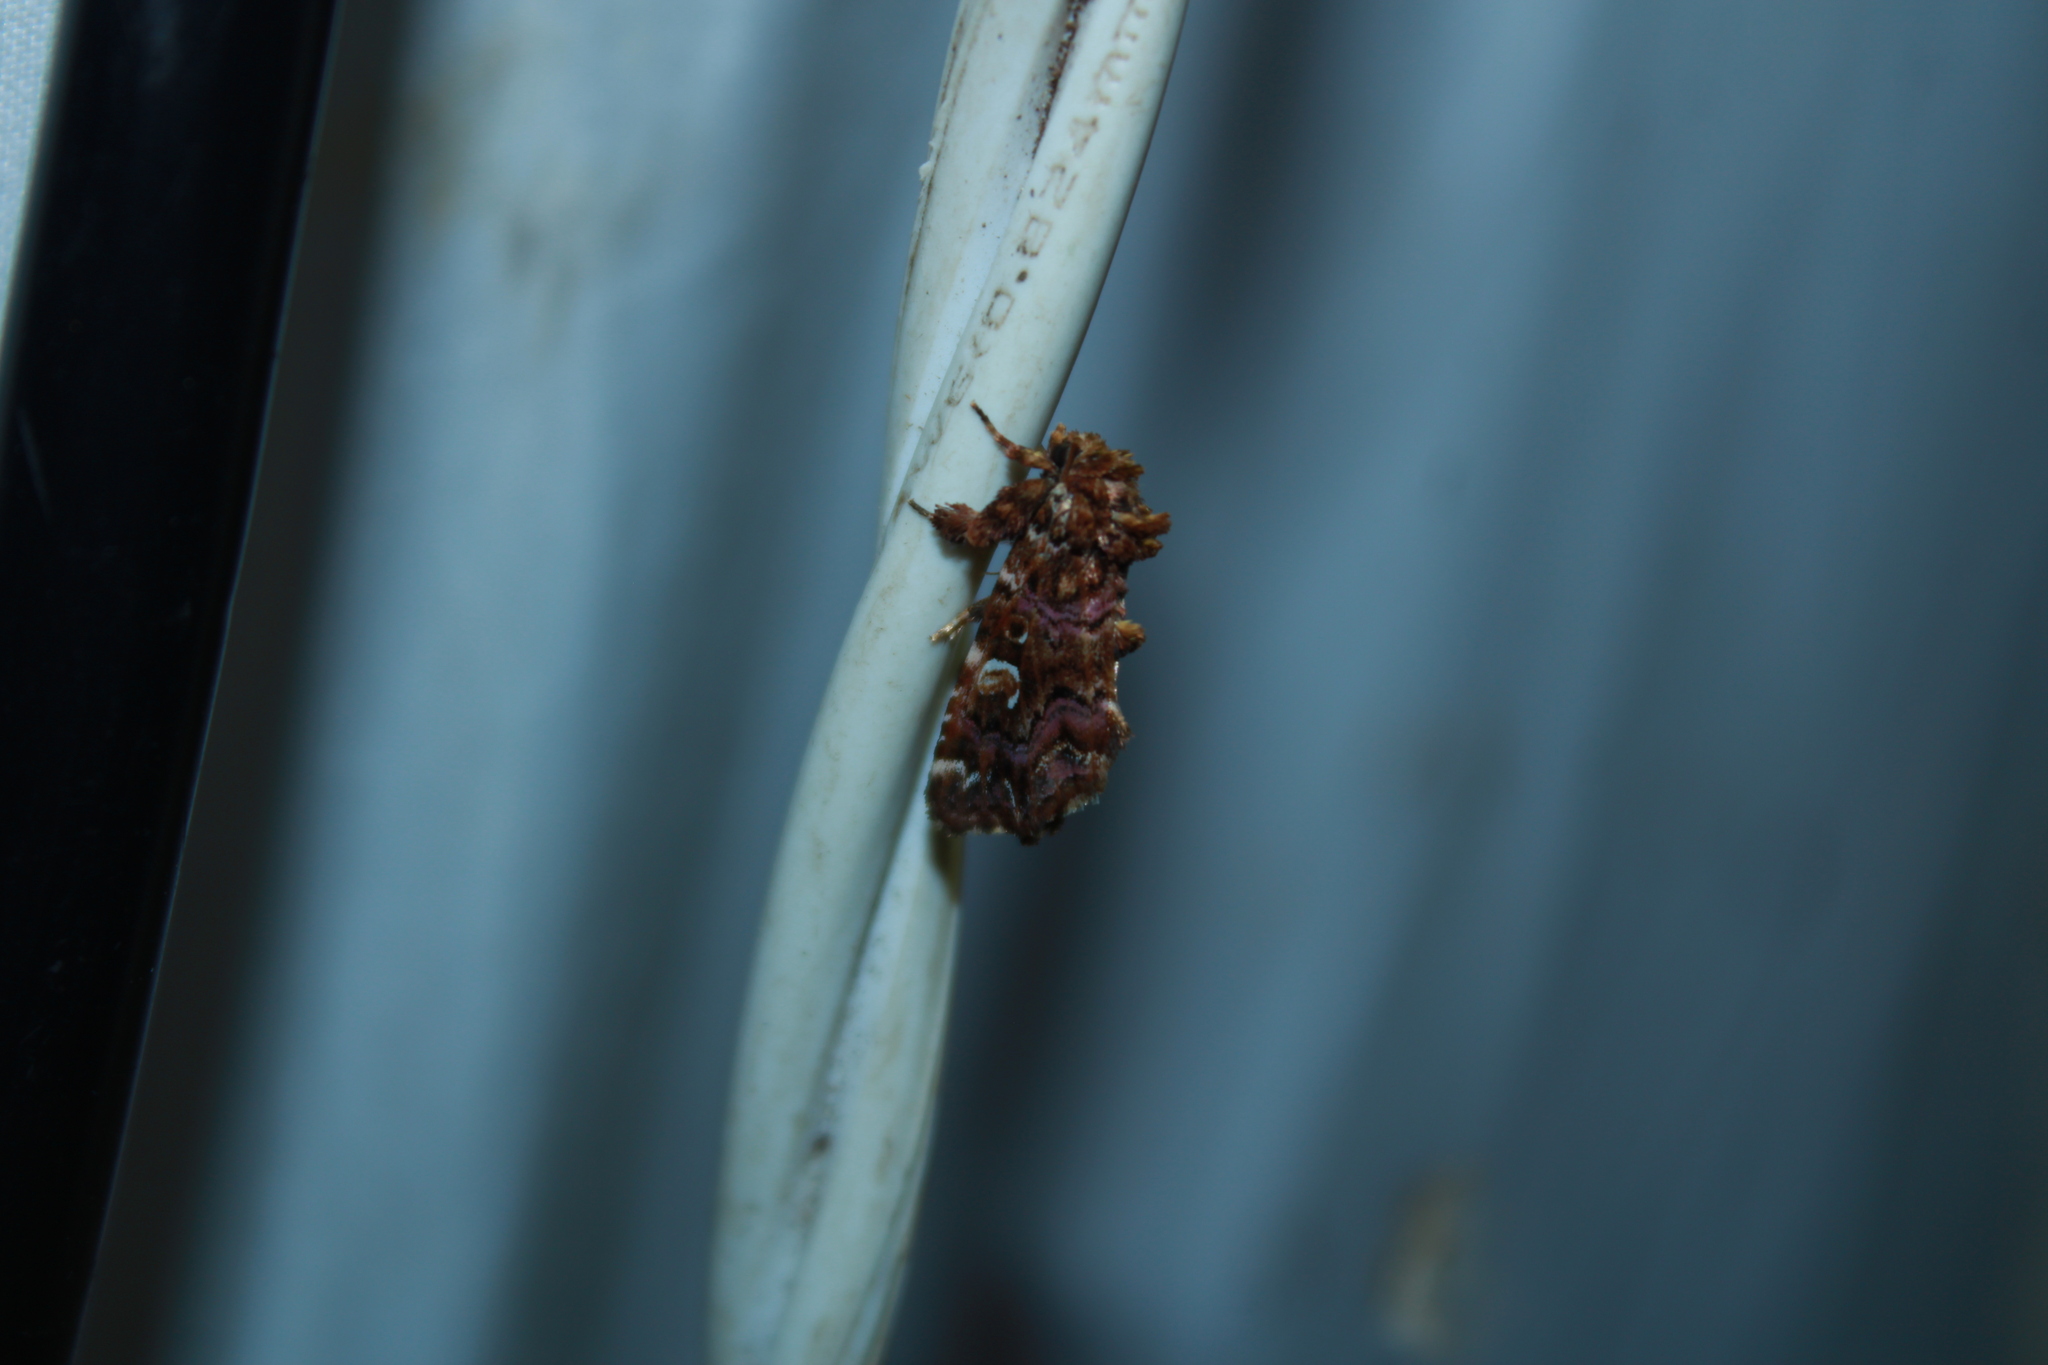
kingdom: Animalia
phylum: Arthropoda
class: Insecta
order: Lepidoptera
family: Noctuidae
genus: Callopistria
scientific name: Callopistria mollissima
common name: Pink-shaded fern moth
